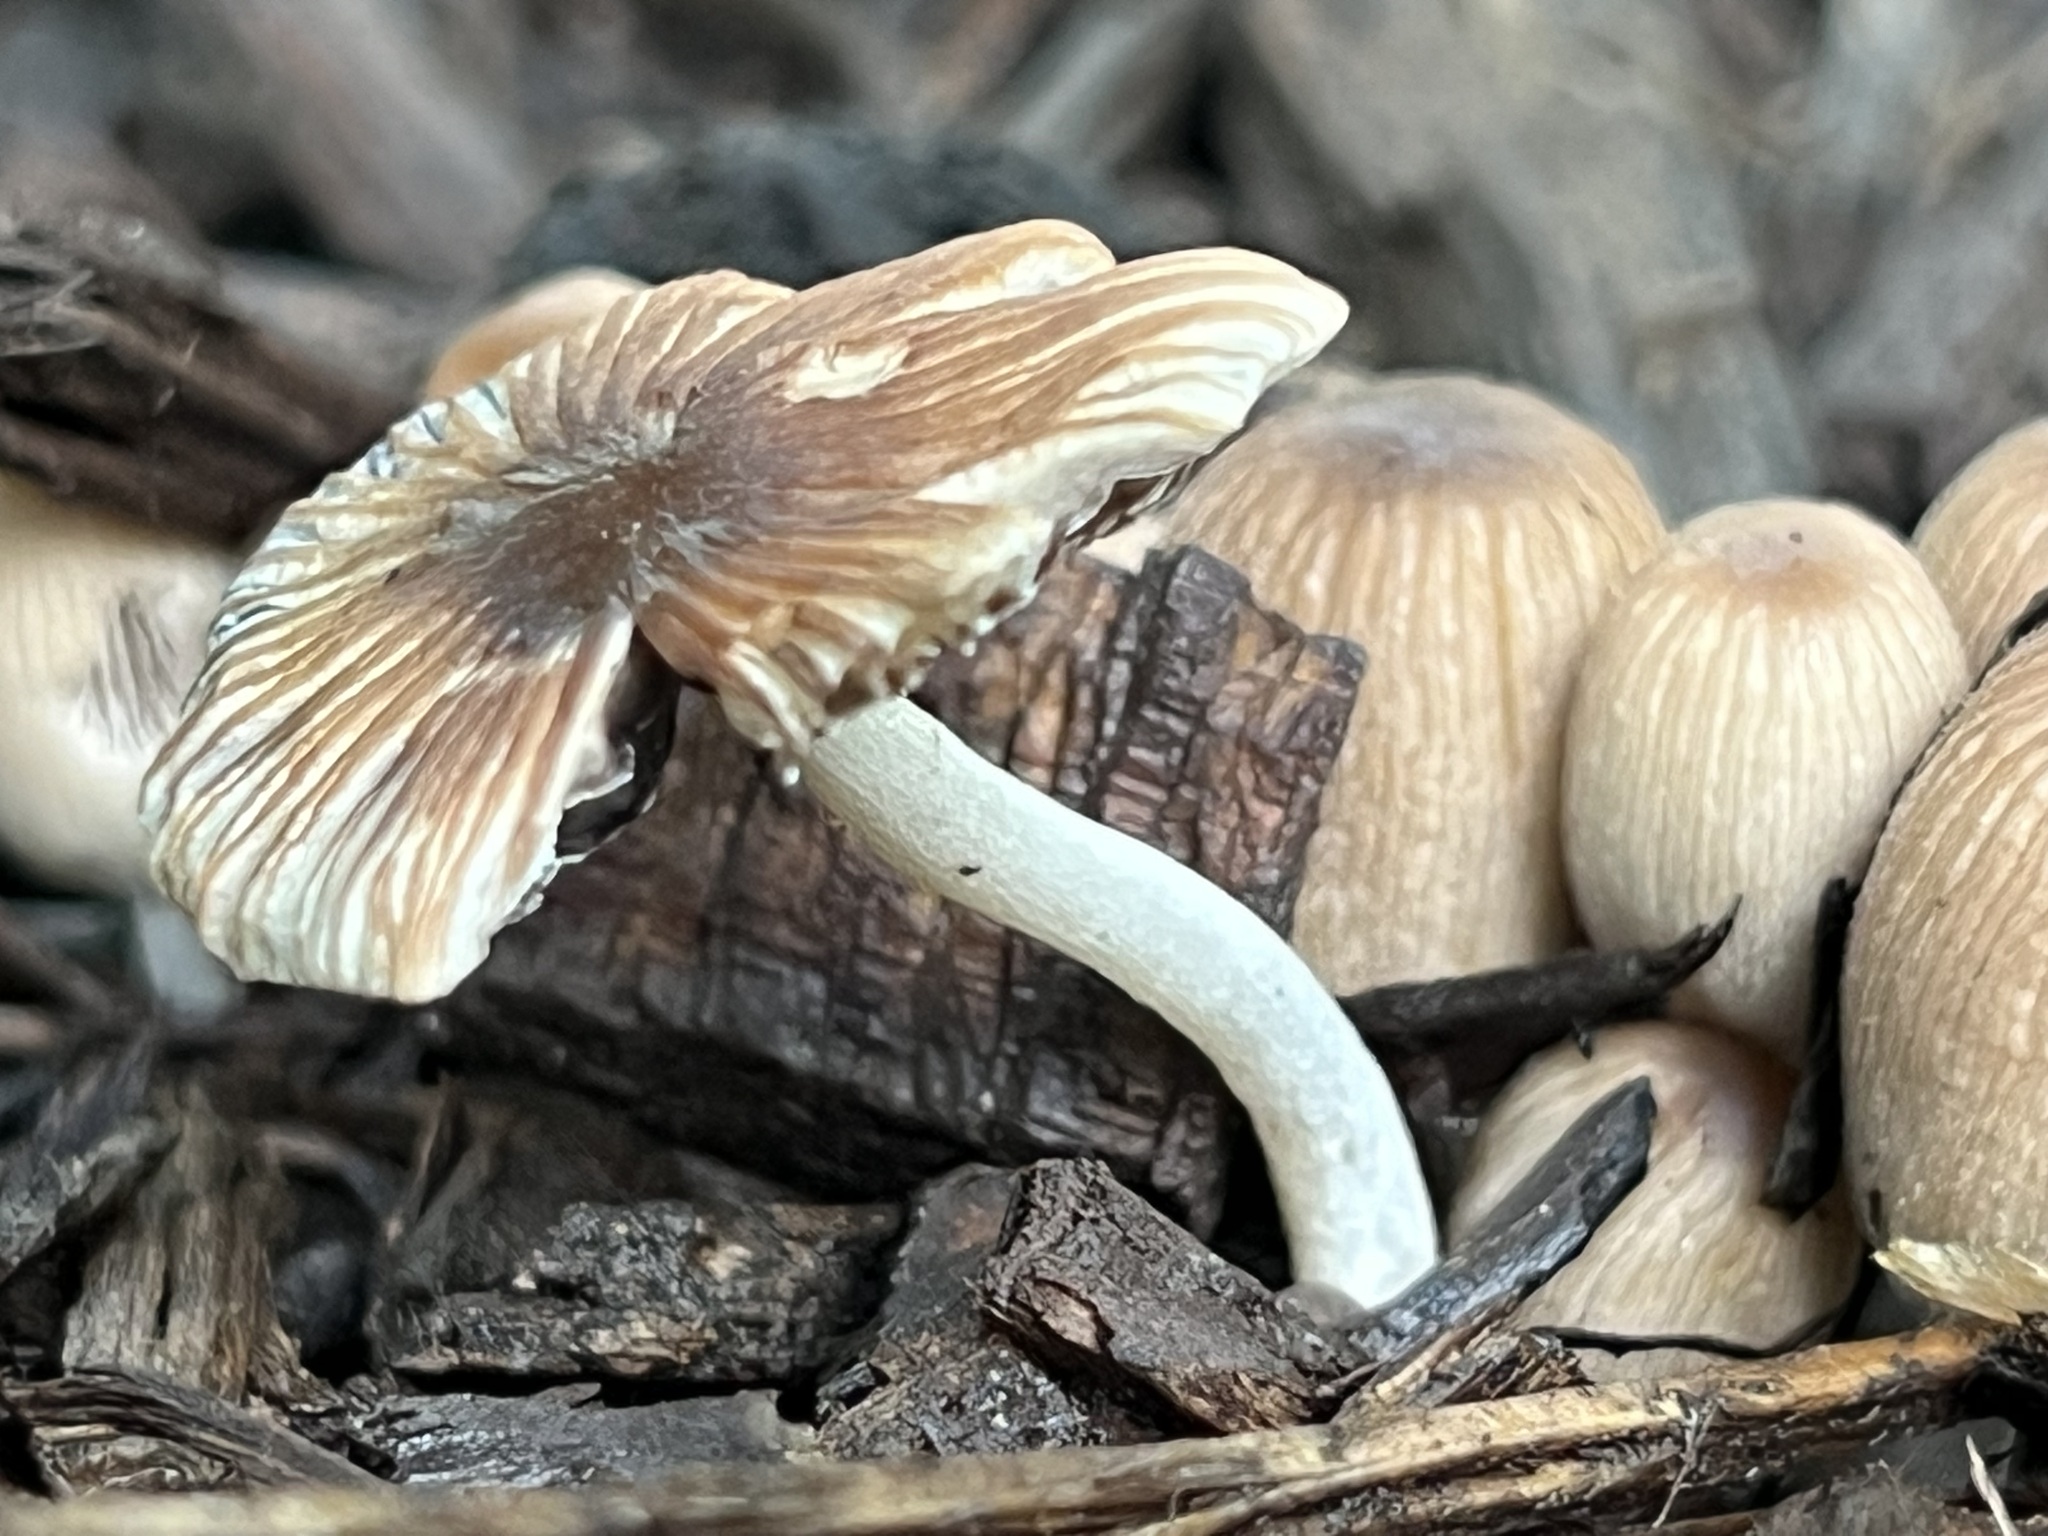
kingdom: Fungi
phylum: Basidiomycota
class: Agaricomycetes
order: Agaricales
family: Psathyrellaceae
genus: Coprinellus
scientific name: Coprinellus micaceus
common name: Glistening ink-cap
